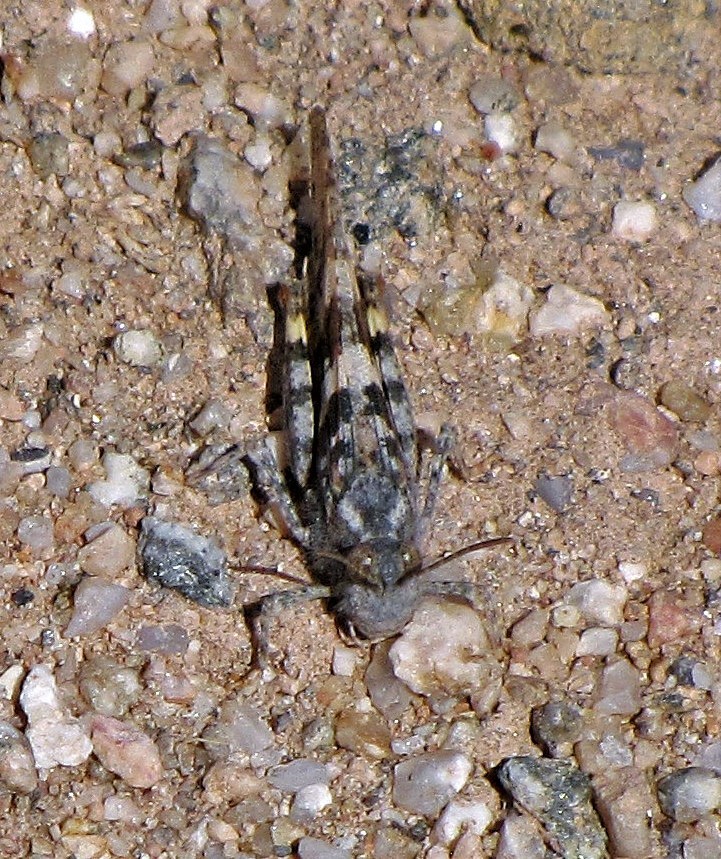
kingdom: Animalia
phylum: Arthropoda
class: Insecta
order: Orthoptera
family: Acrididae
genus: Trimerotropis
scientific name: Trimerotropis pallidipennis
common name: Pallid-winged grasshopper
